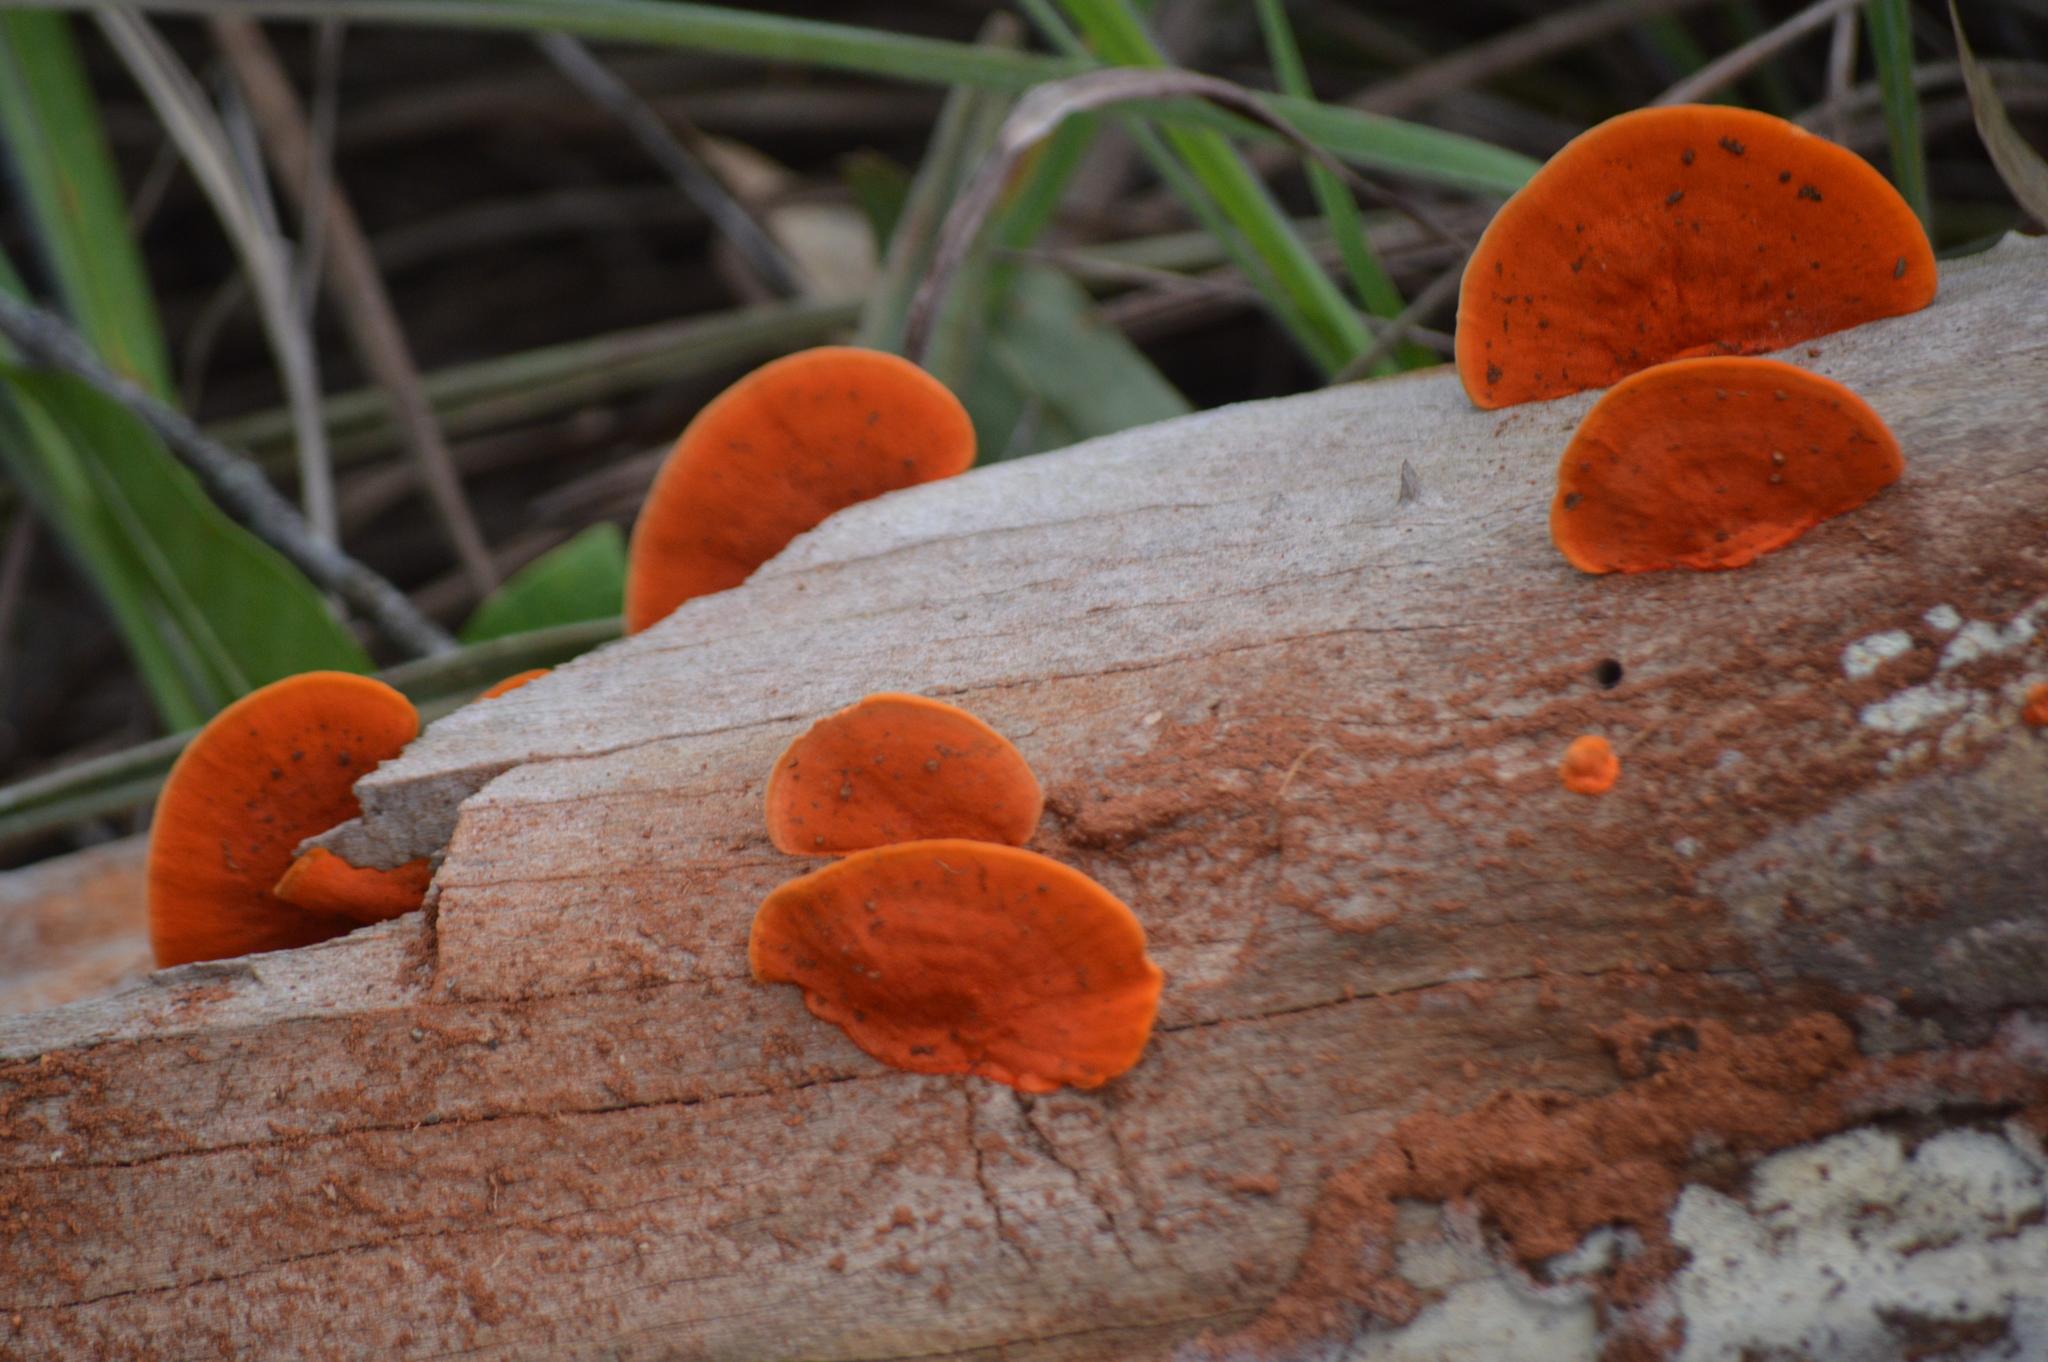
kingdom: Fungi
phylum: Basidiomycota
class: Agaricomycetes
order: Polyporales
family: Polyporaceae
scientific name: Polyporaceae
